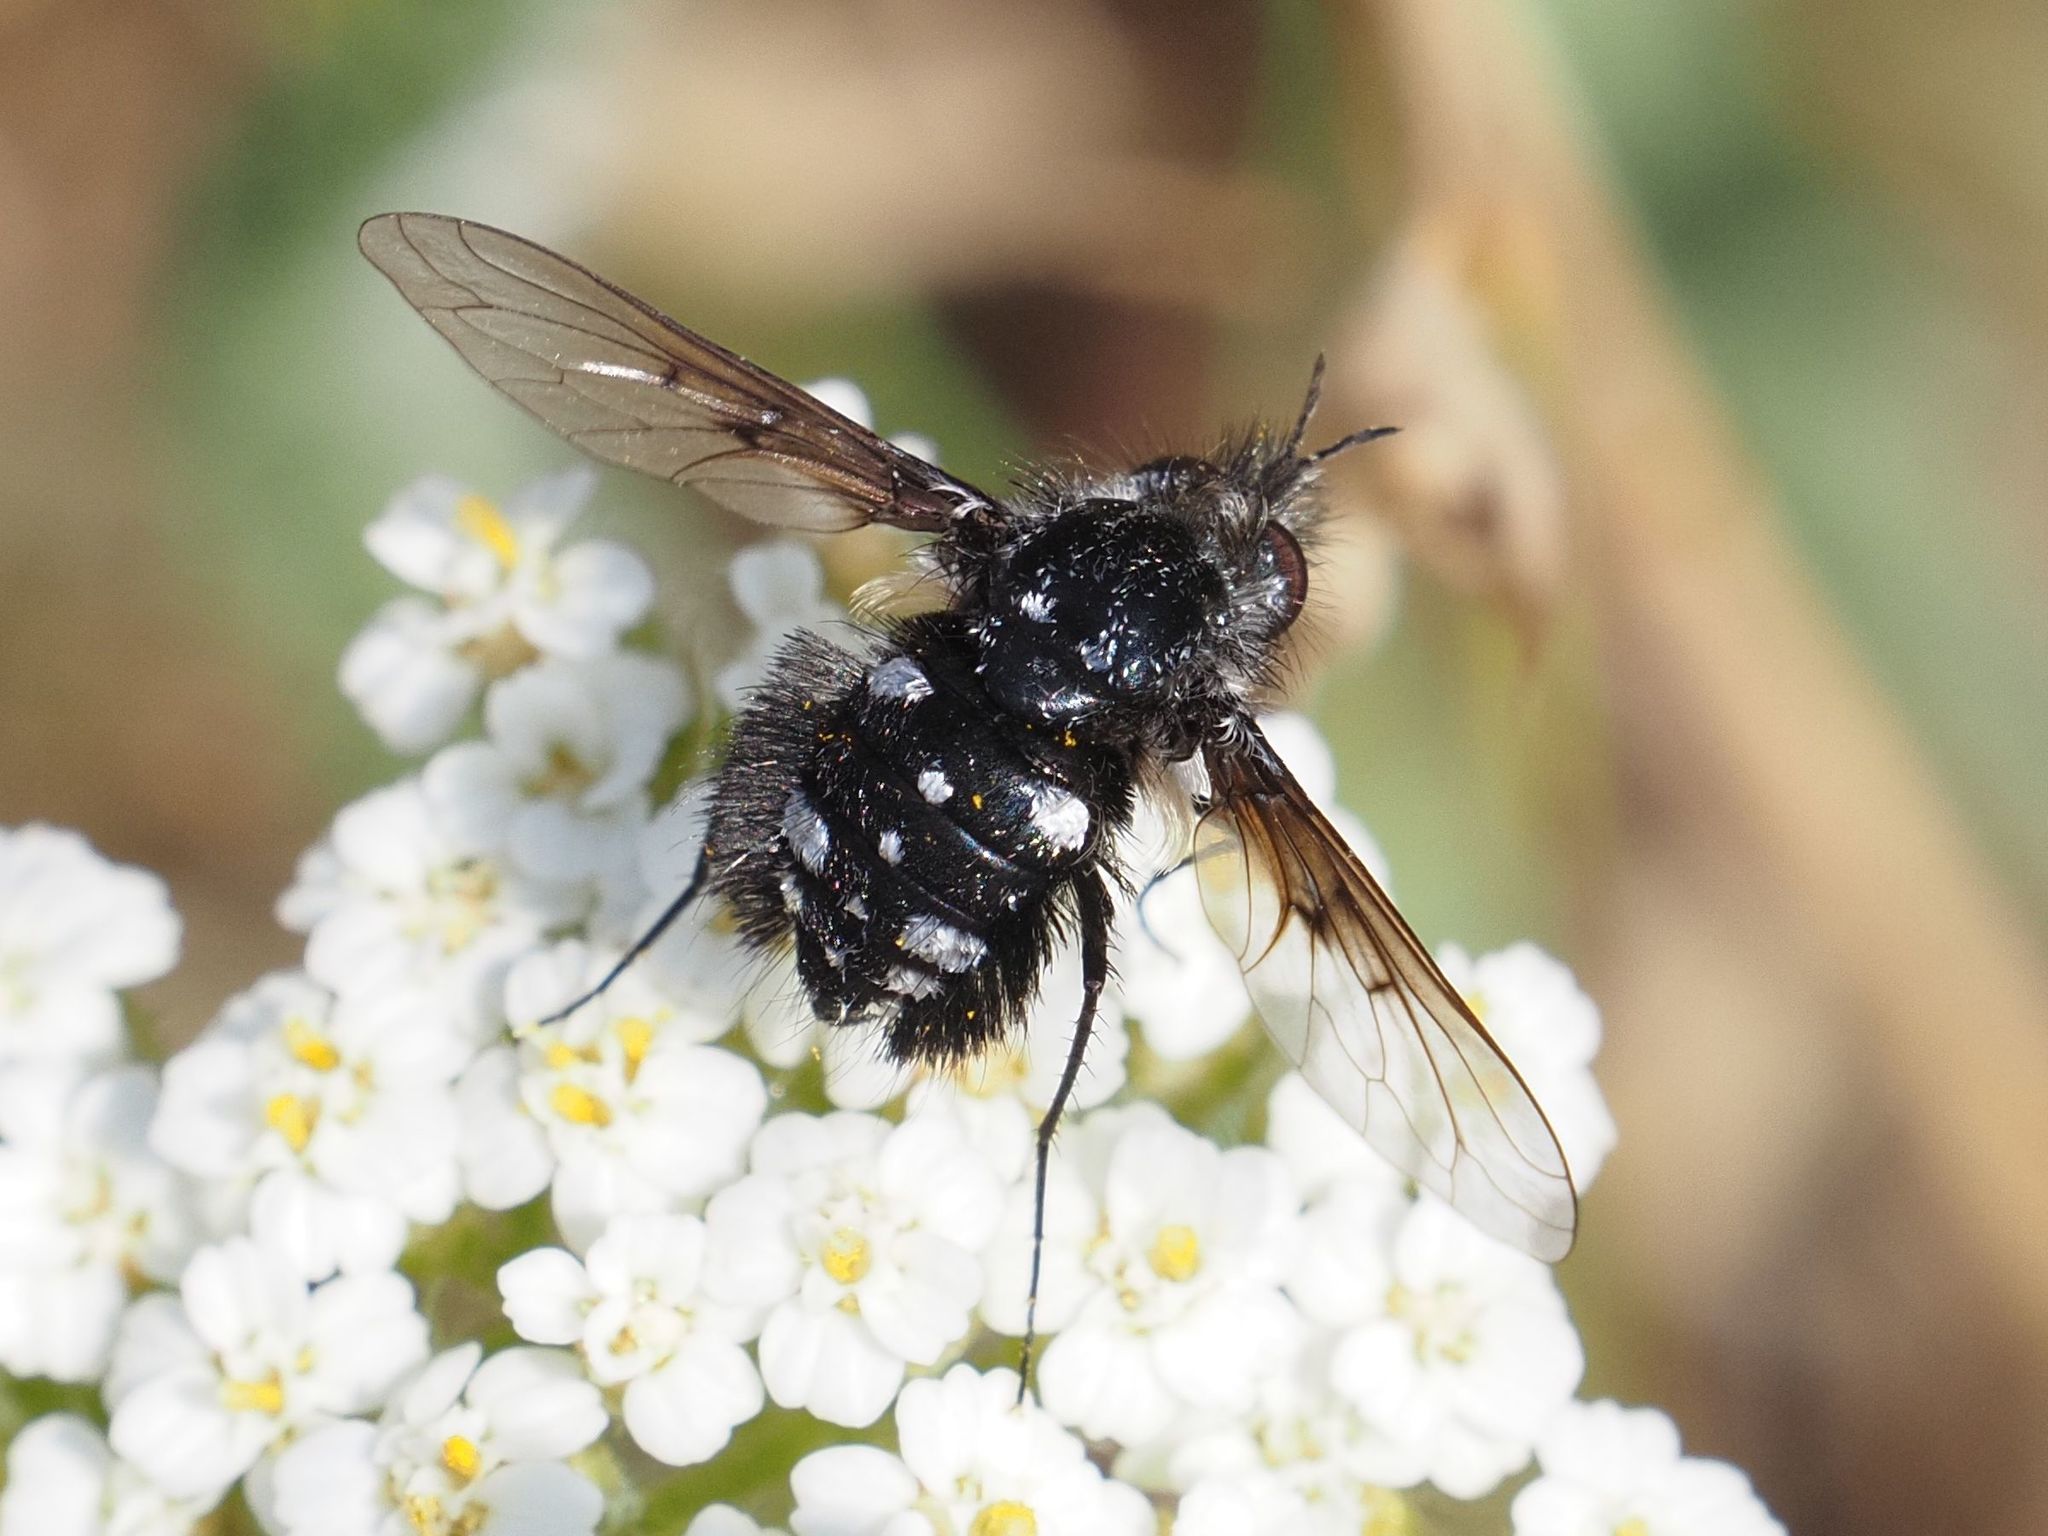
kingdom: Animalia
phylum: Arthropoda
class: Insecta
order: Diptera
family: Bombyliidae
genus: Bombylella
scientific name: Bombylella atra
